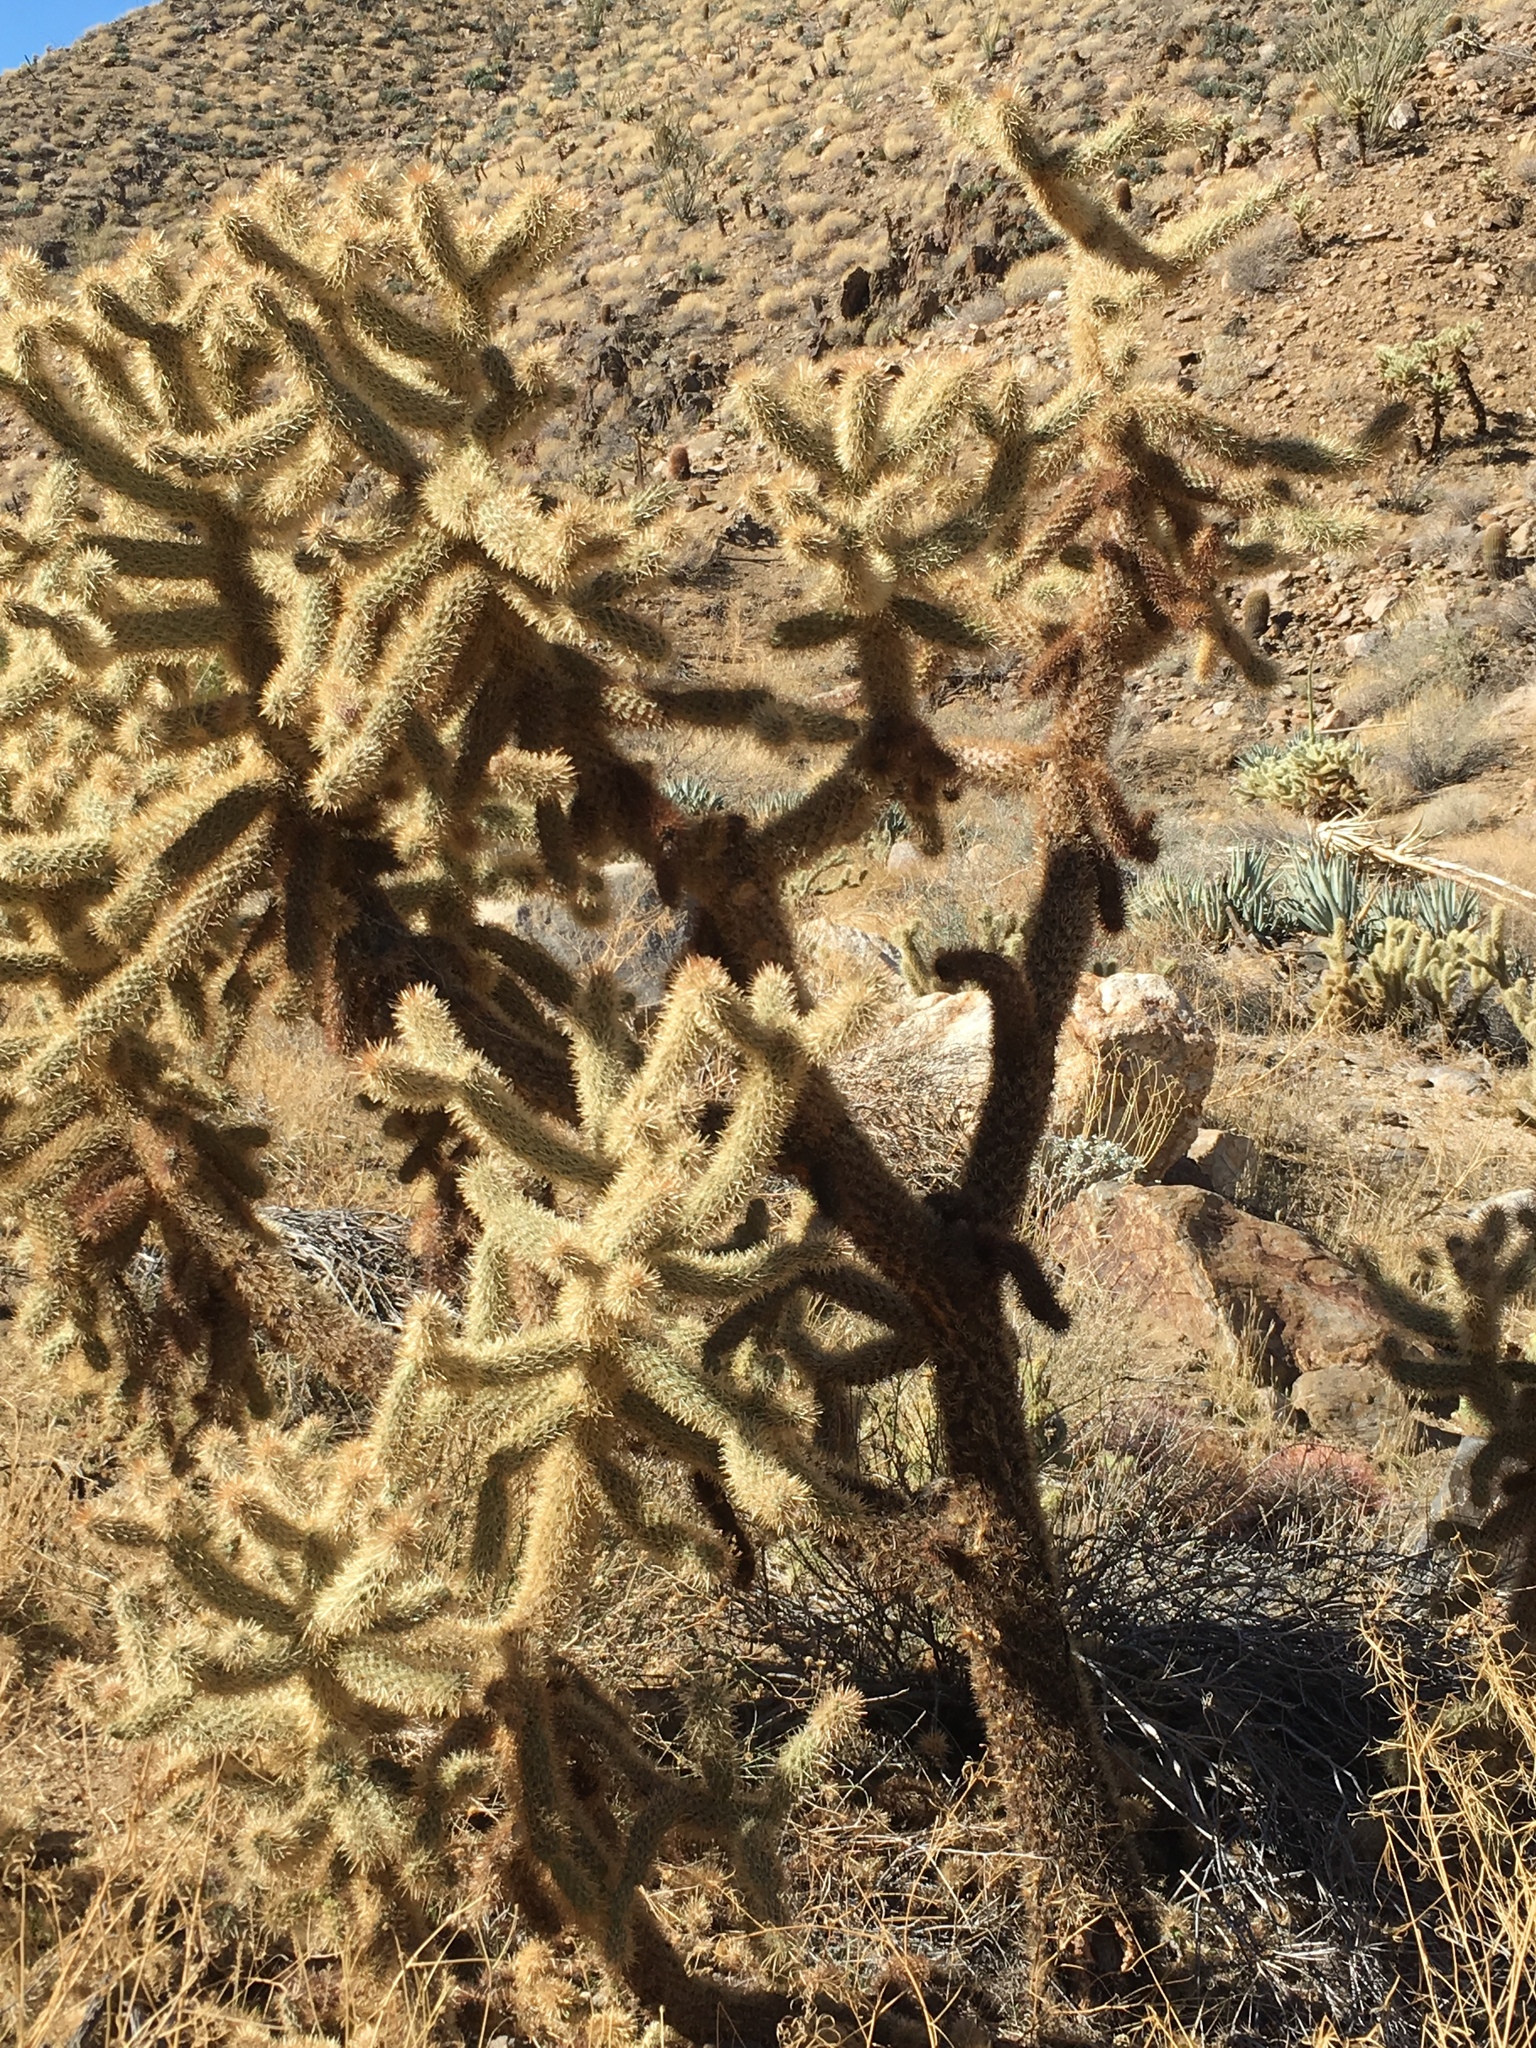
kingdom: Plantae
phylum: Tracheophyta
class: Magnoliopsida
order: Caryophyllales
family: Cactaceae
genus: Cylindropuntia
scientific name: Cylindropuntia fosbergii
